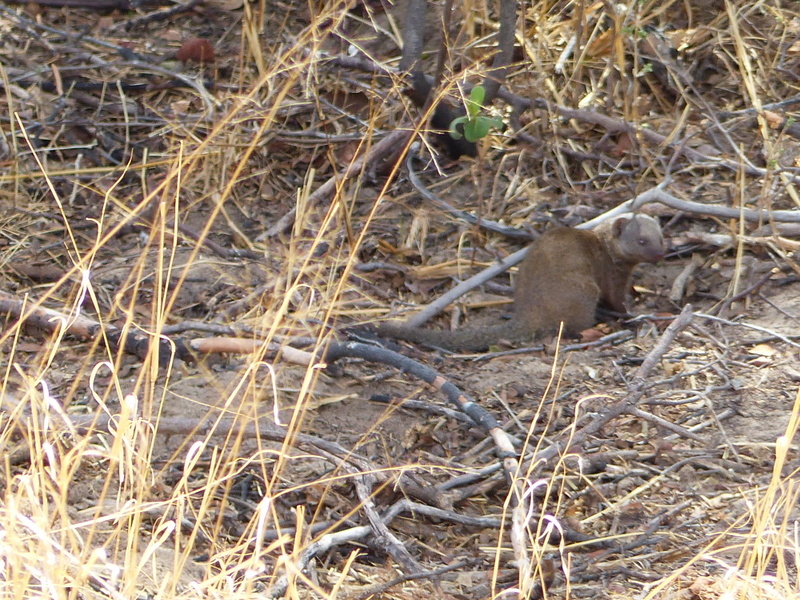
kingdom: Animalia
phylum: Chordata
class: Mammalia
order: Carnivora
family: Herpestidae
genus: Helogale
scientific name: Helogale parvula
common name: Common dwarf mongoose
